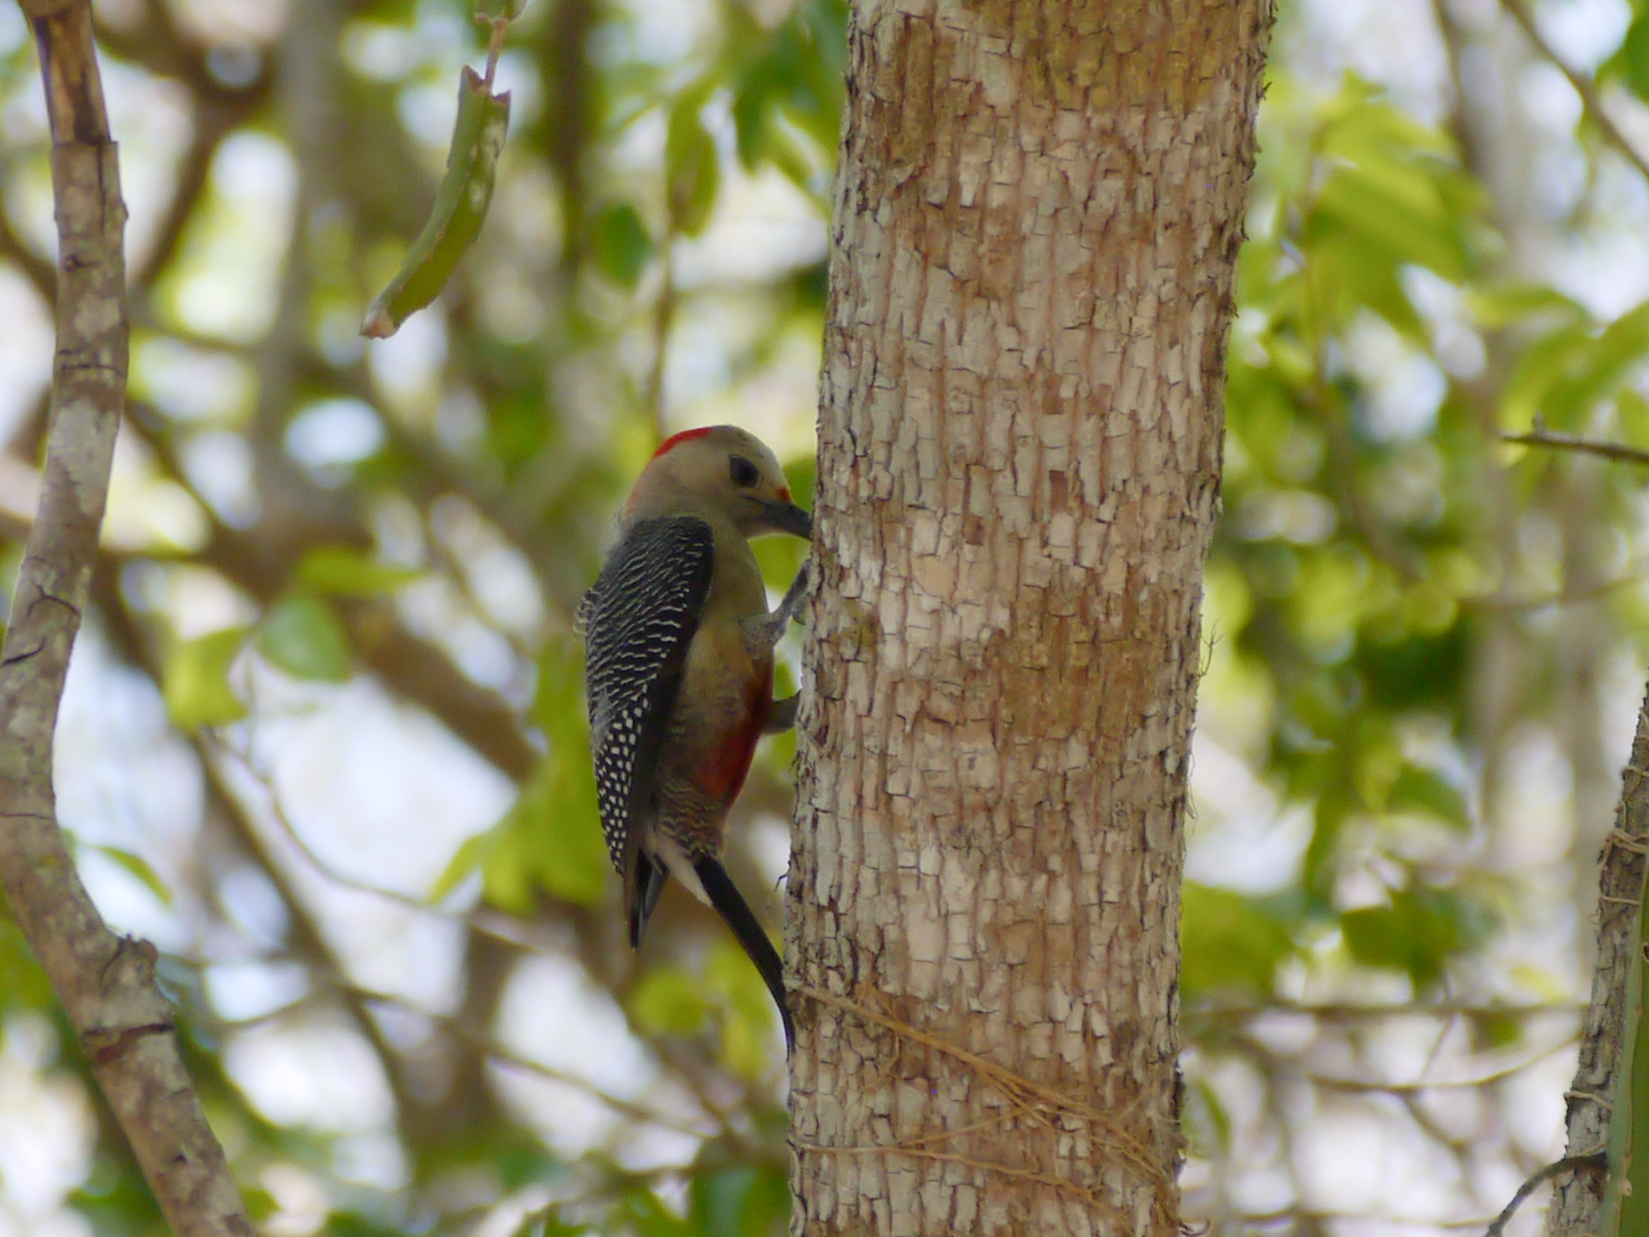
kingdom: Animalia
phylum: Chordata
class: Aves
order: Piciformes
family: Picidae
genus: Melanerpes
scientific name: Melanerpes santacruzi
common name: Velasquez's woodpecker
